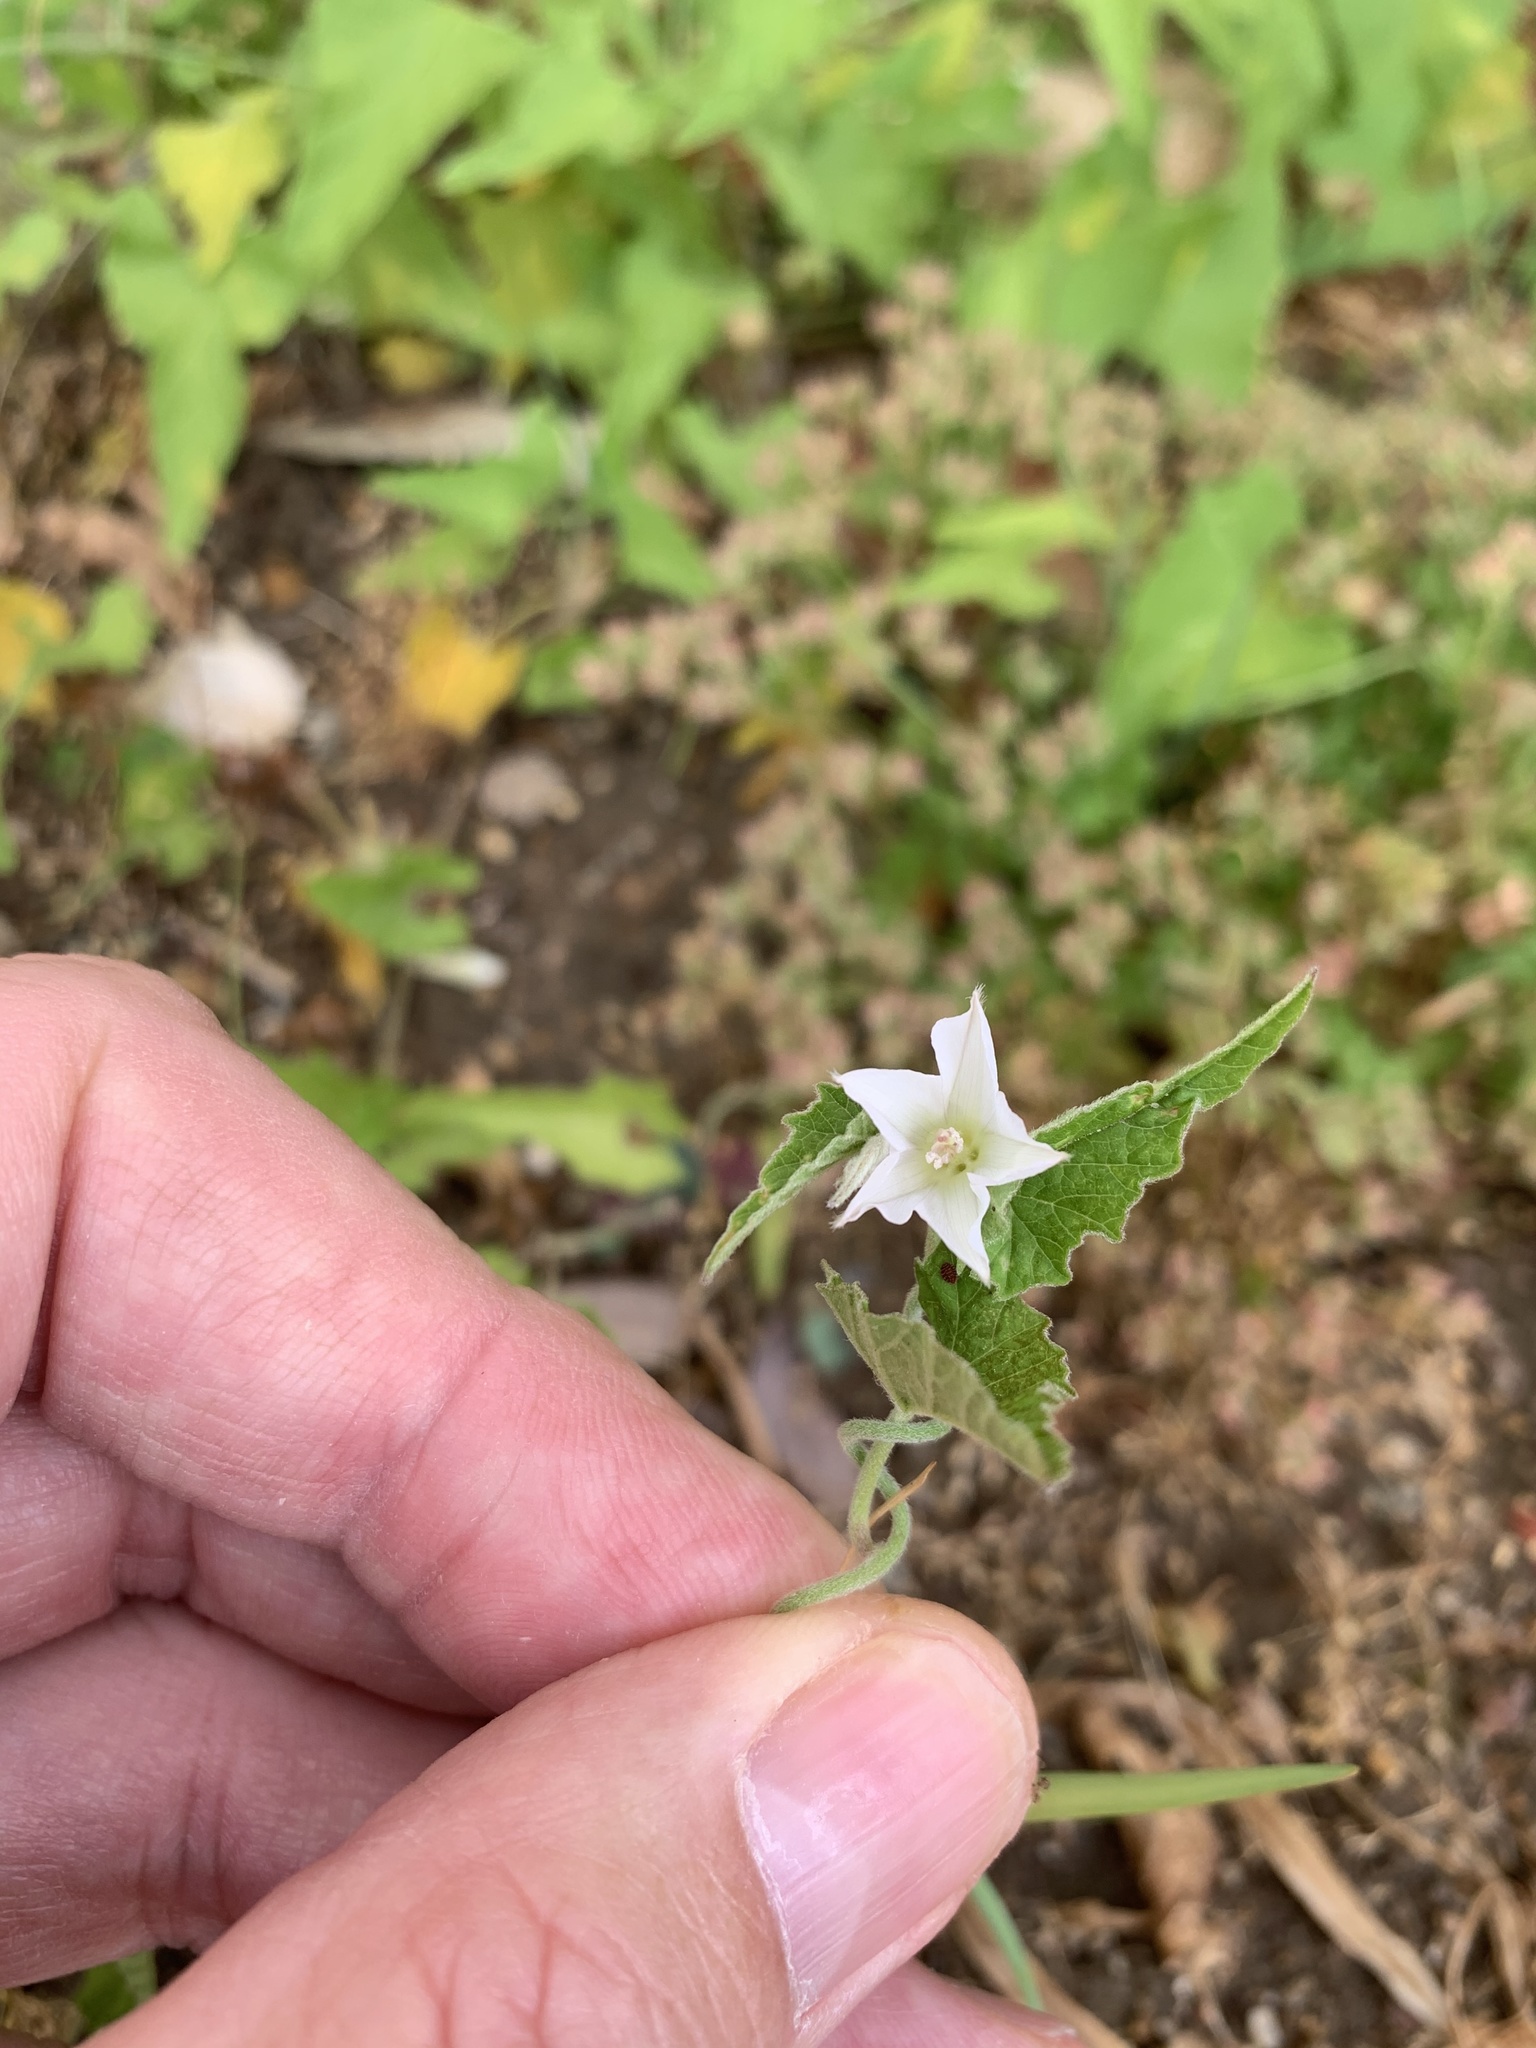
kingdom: Plantae
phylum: Tracheophyta
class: Magnoliopsida
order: Solanales
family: Convolvulaceae
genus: Convolvulus
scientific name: Convolvulus farinosus
